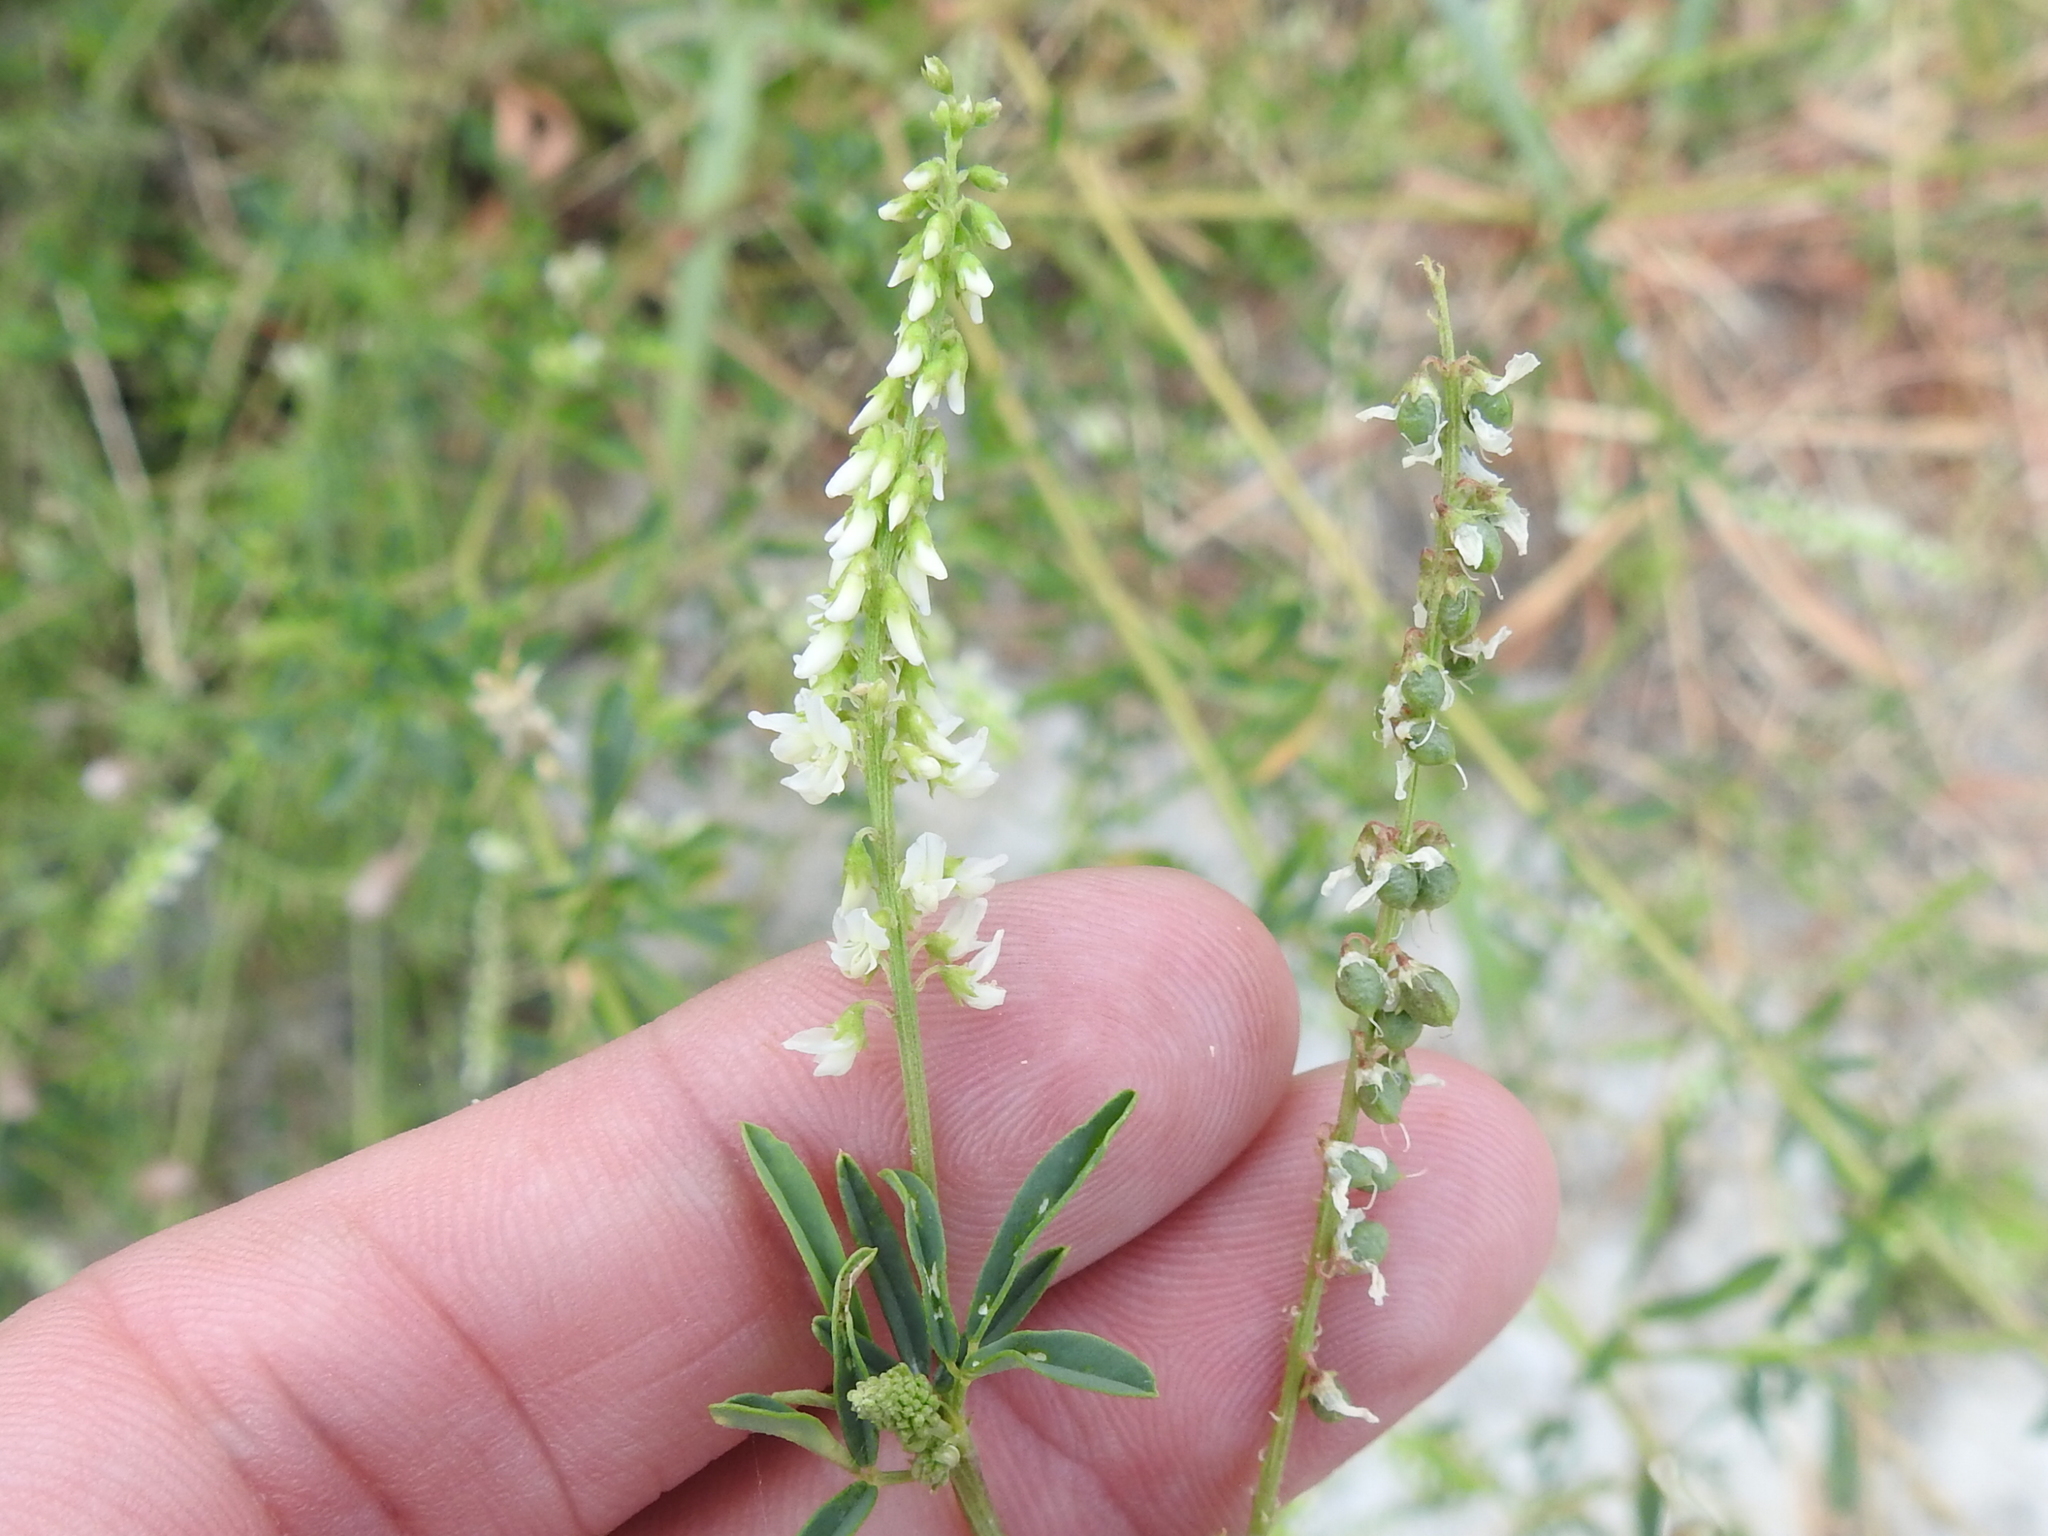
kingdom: Plantae
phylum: Tracheophyta
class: Magnoliopsida
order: Fabales
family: Fabaceae
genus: Melilotus
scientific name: Melilotus albus
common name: White melilot
